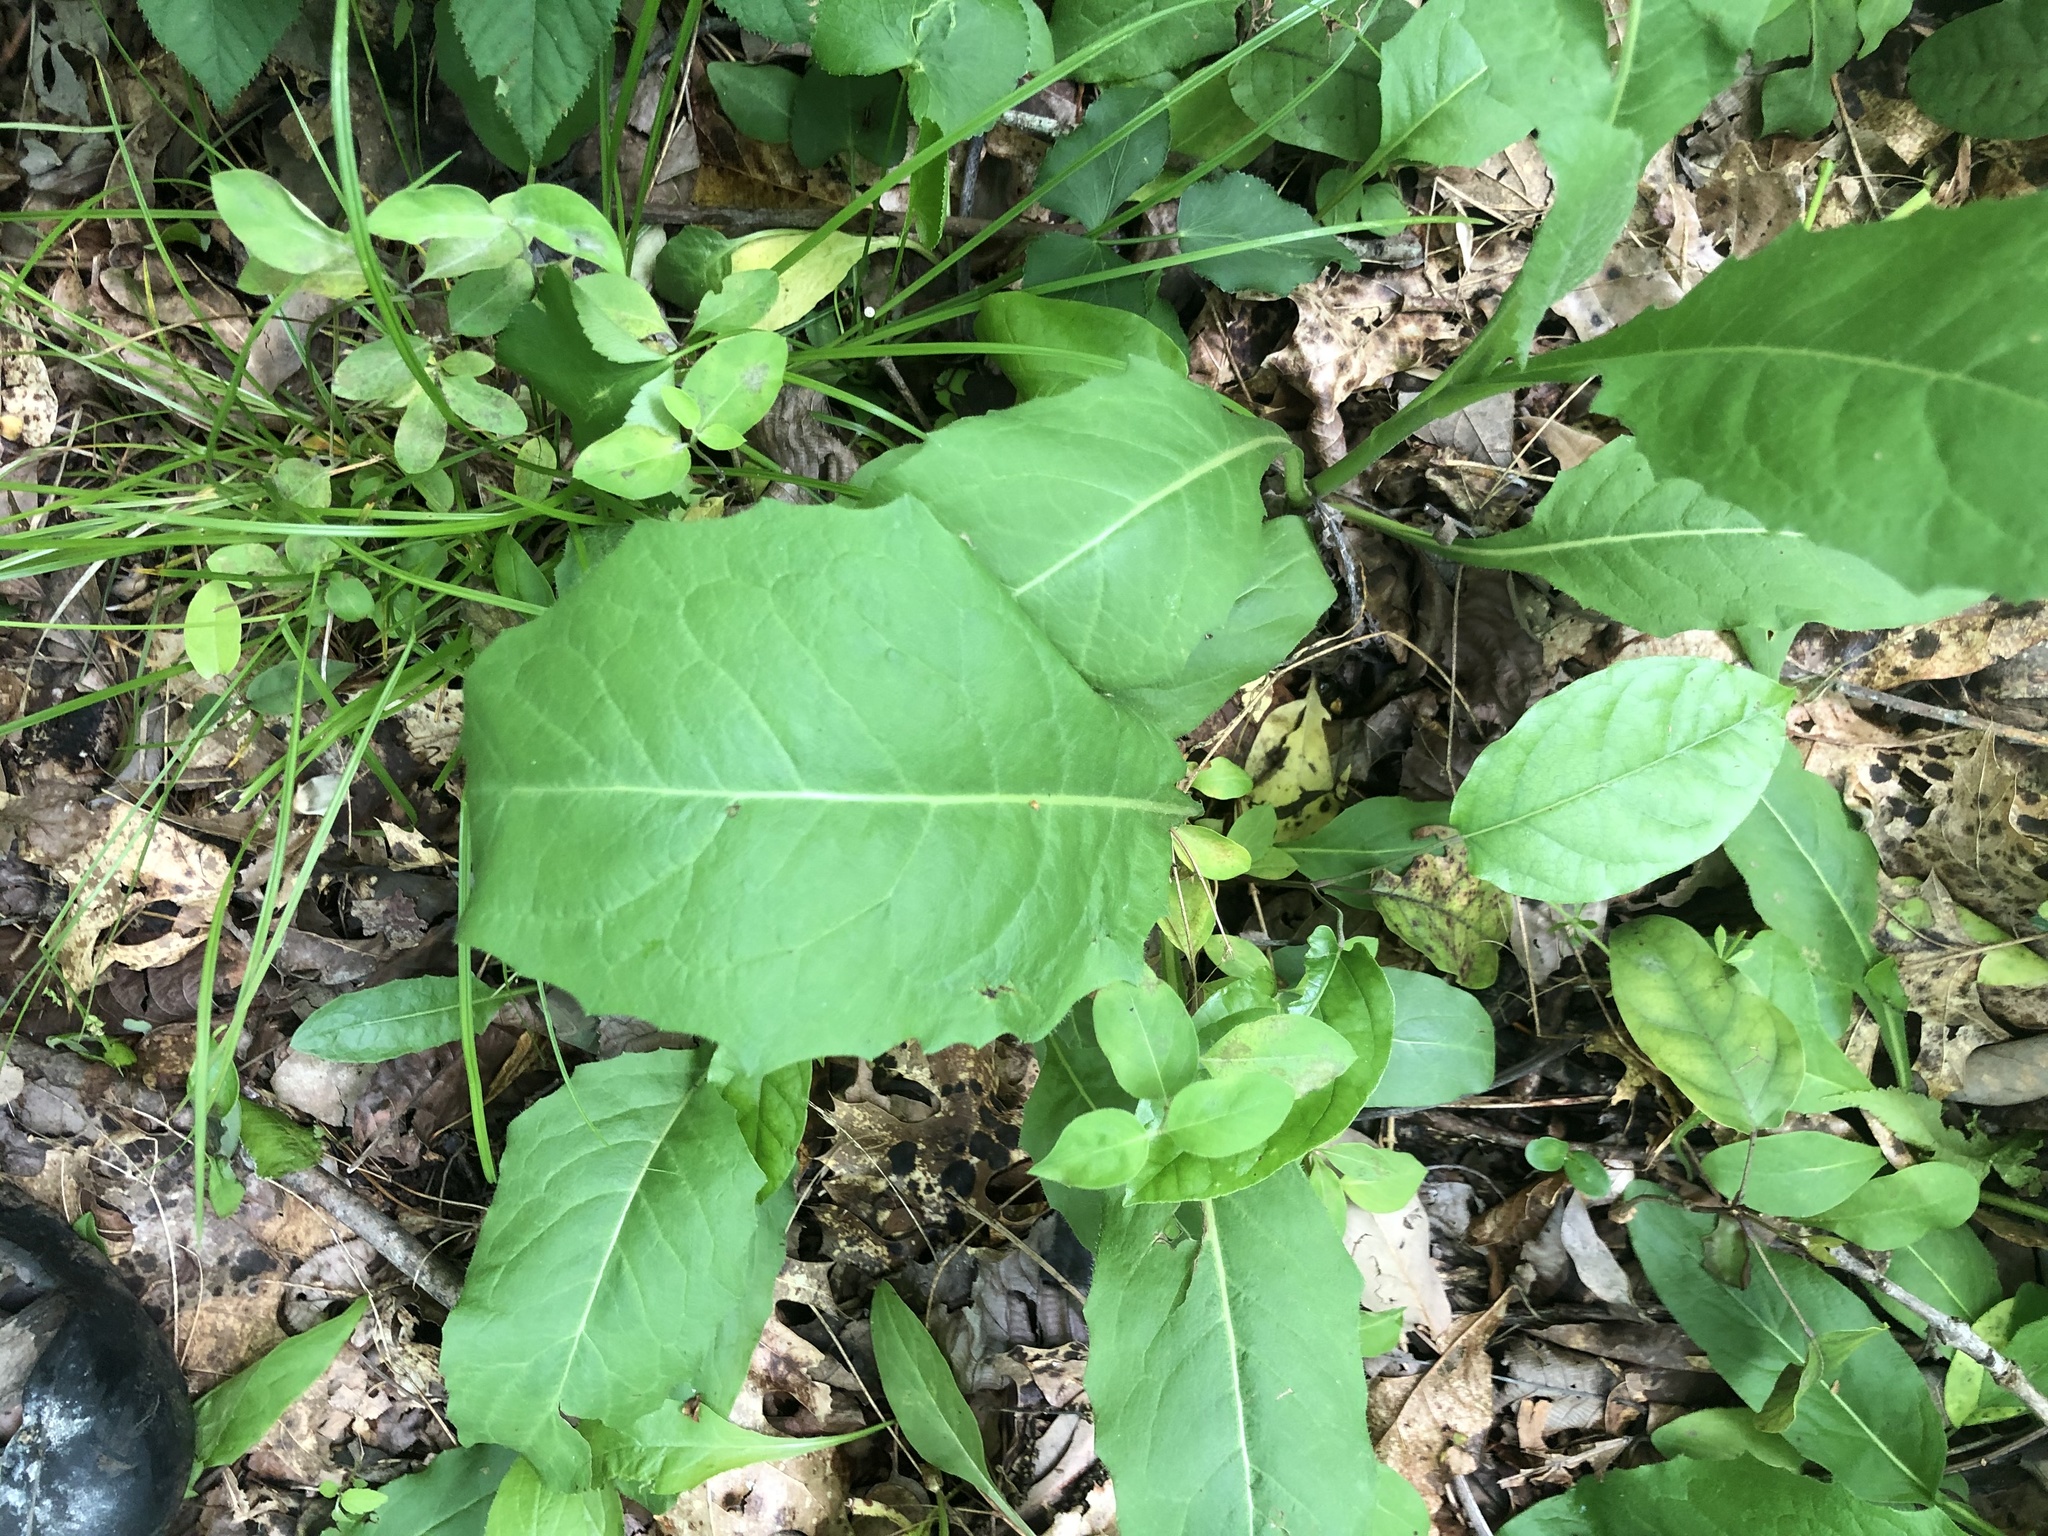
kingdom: Plantae
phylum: Tracheophyta
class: Magnoliopsida
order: Asterales
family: Asteraceae
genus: Nabalus
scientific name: Nabalus barbata
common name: Barbed rattlesnakeroot
